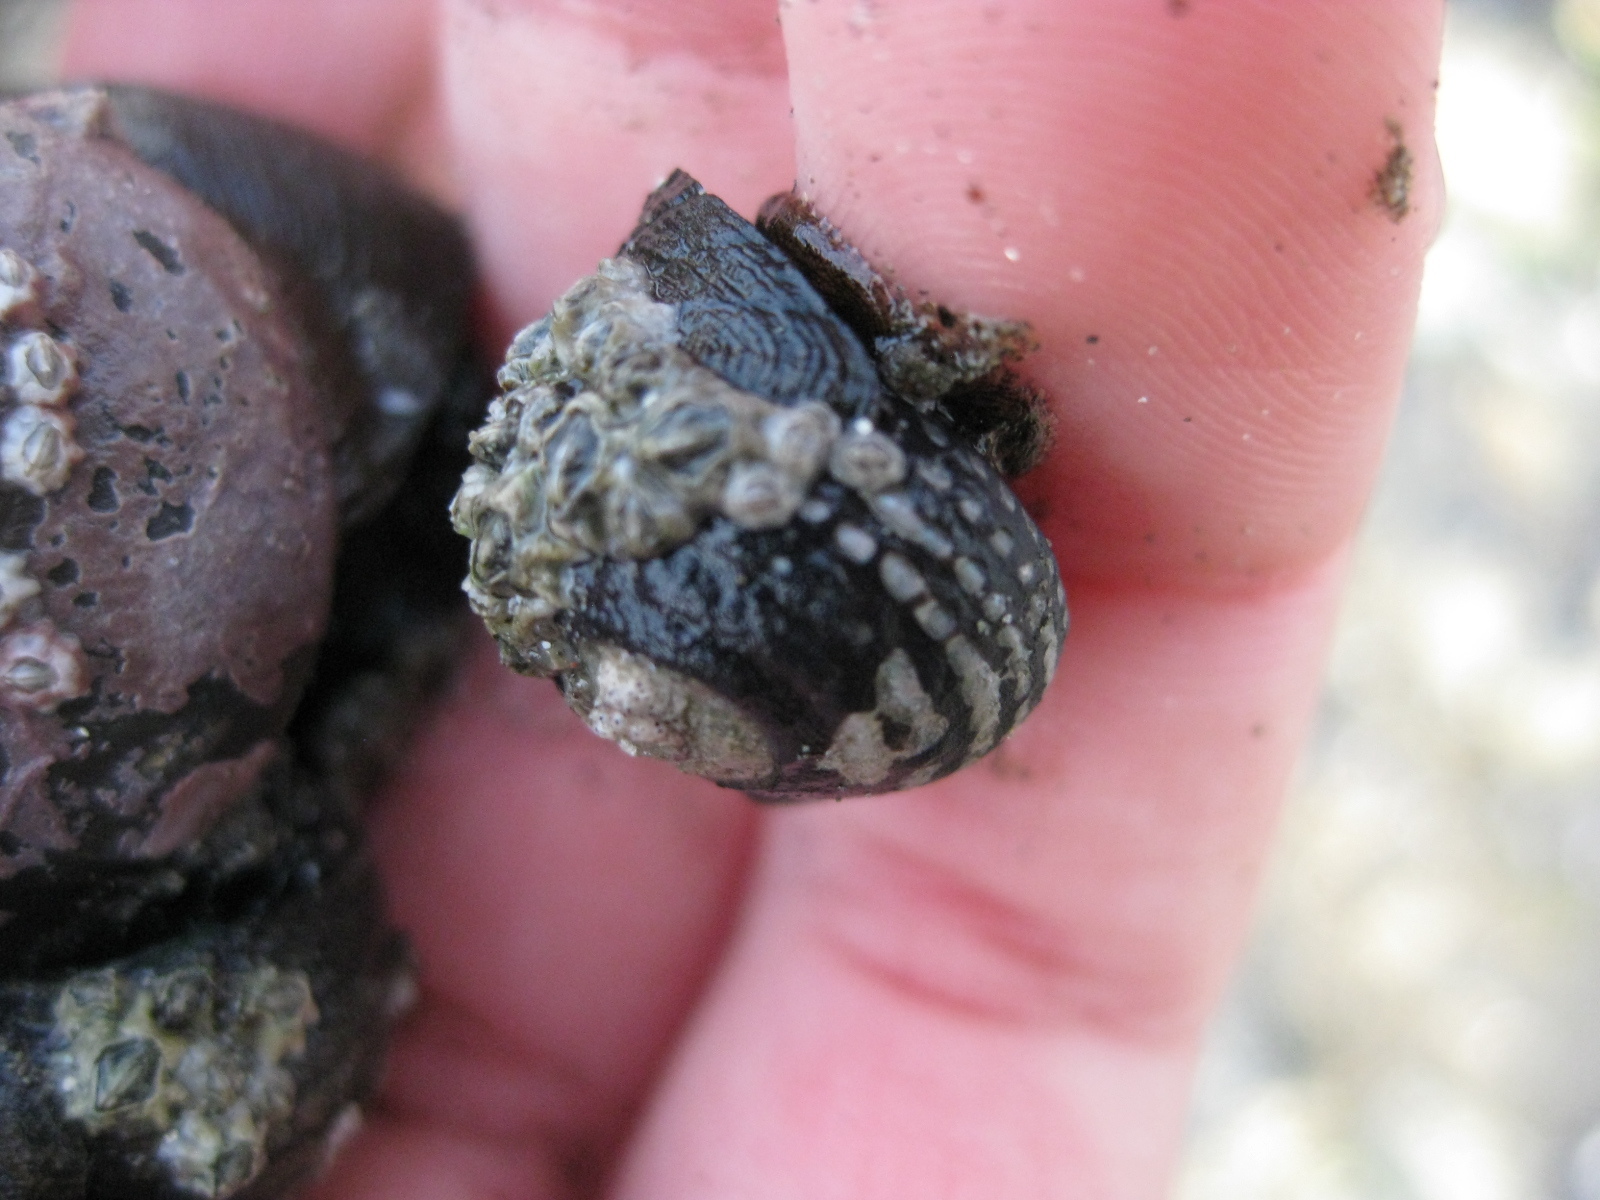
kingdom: Animalia
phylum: Mollusca
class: Gastropoda
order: Trochida
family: Trochidae
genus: Diloma
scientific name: Diloma aethiops
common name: Scorched monodont
